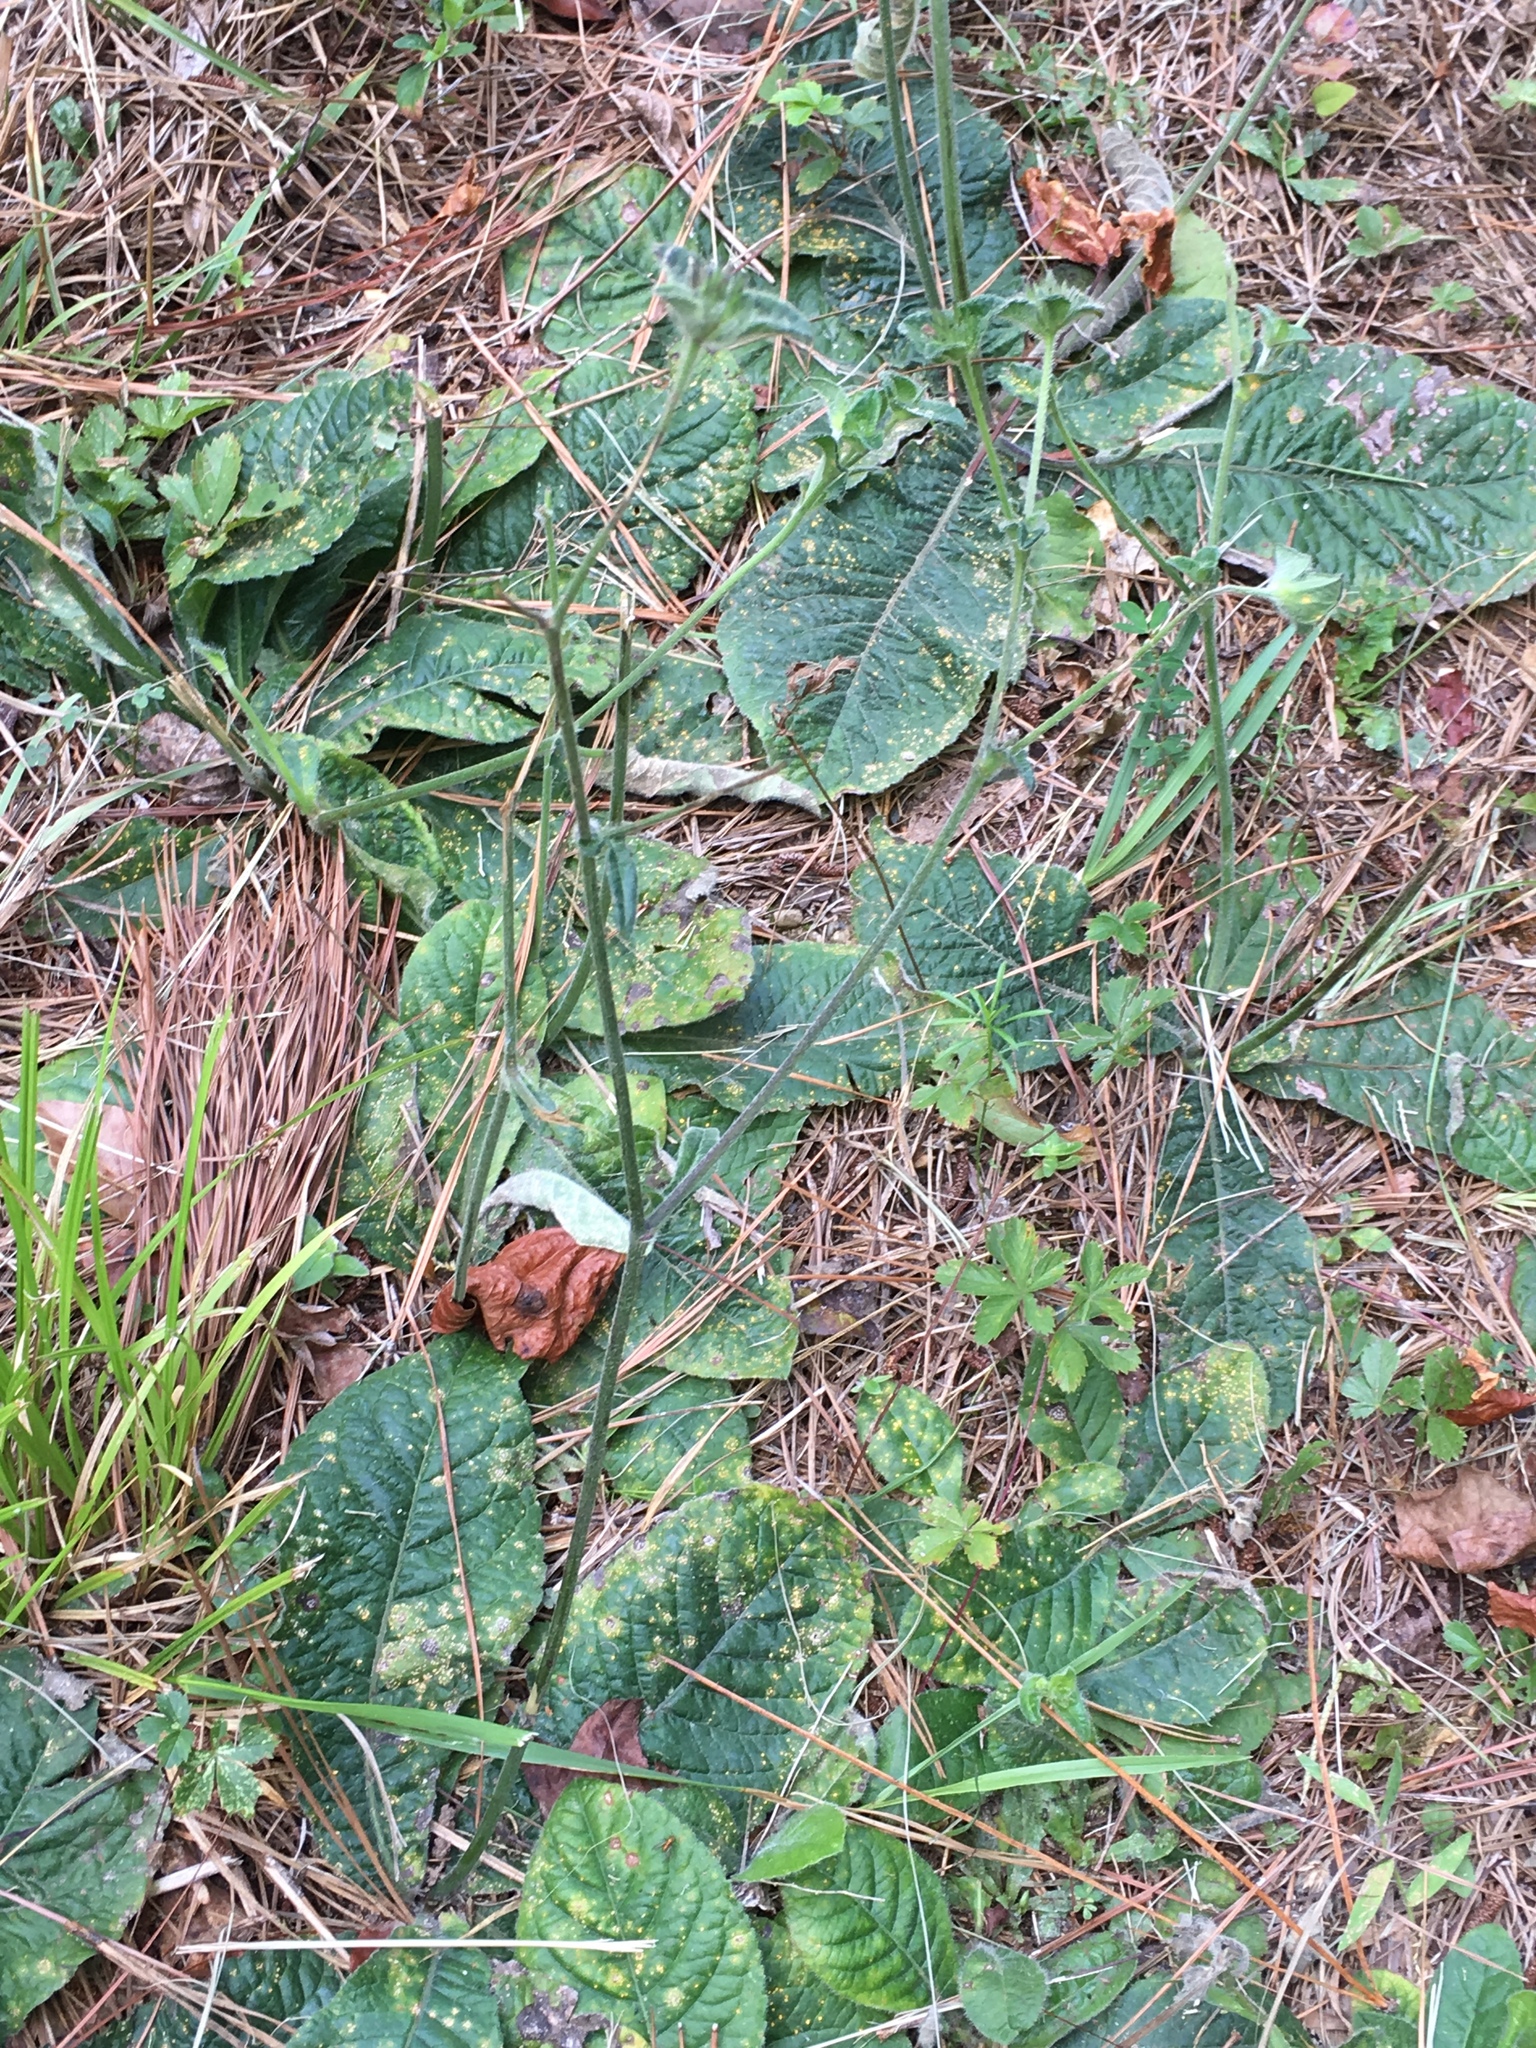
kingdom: Plantae
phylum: Tracheophyta
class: Magnoliopsida
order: Asterales
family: Asteraceae
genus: Elephantopus
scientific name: Elephantopus tomentosus
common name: Tobacco-weed
